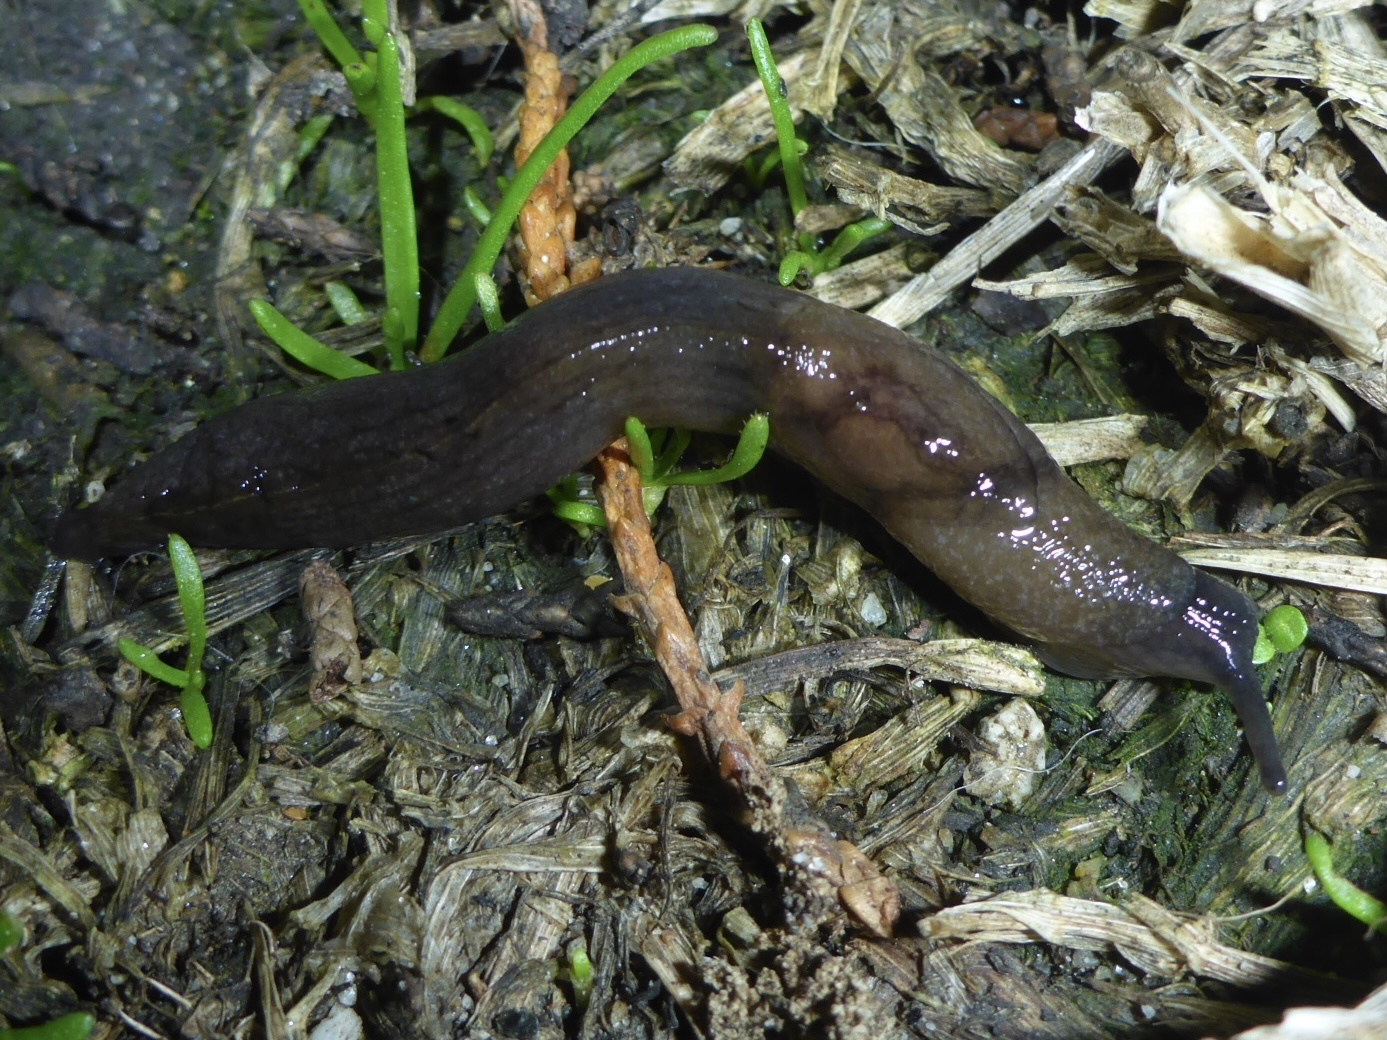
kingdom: Animalia
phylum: Mollusca
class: Gastropoda
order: Stylommatophora
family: Milacidae
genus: Milax
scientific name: Milax gagates
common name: Greenhouse slug
